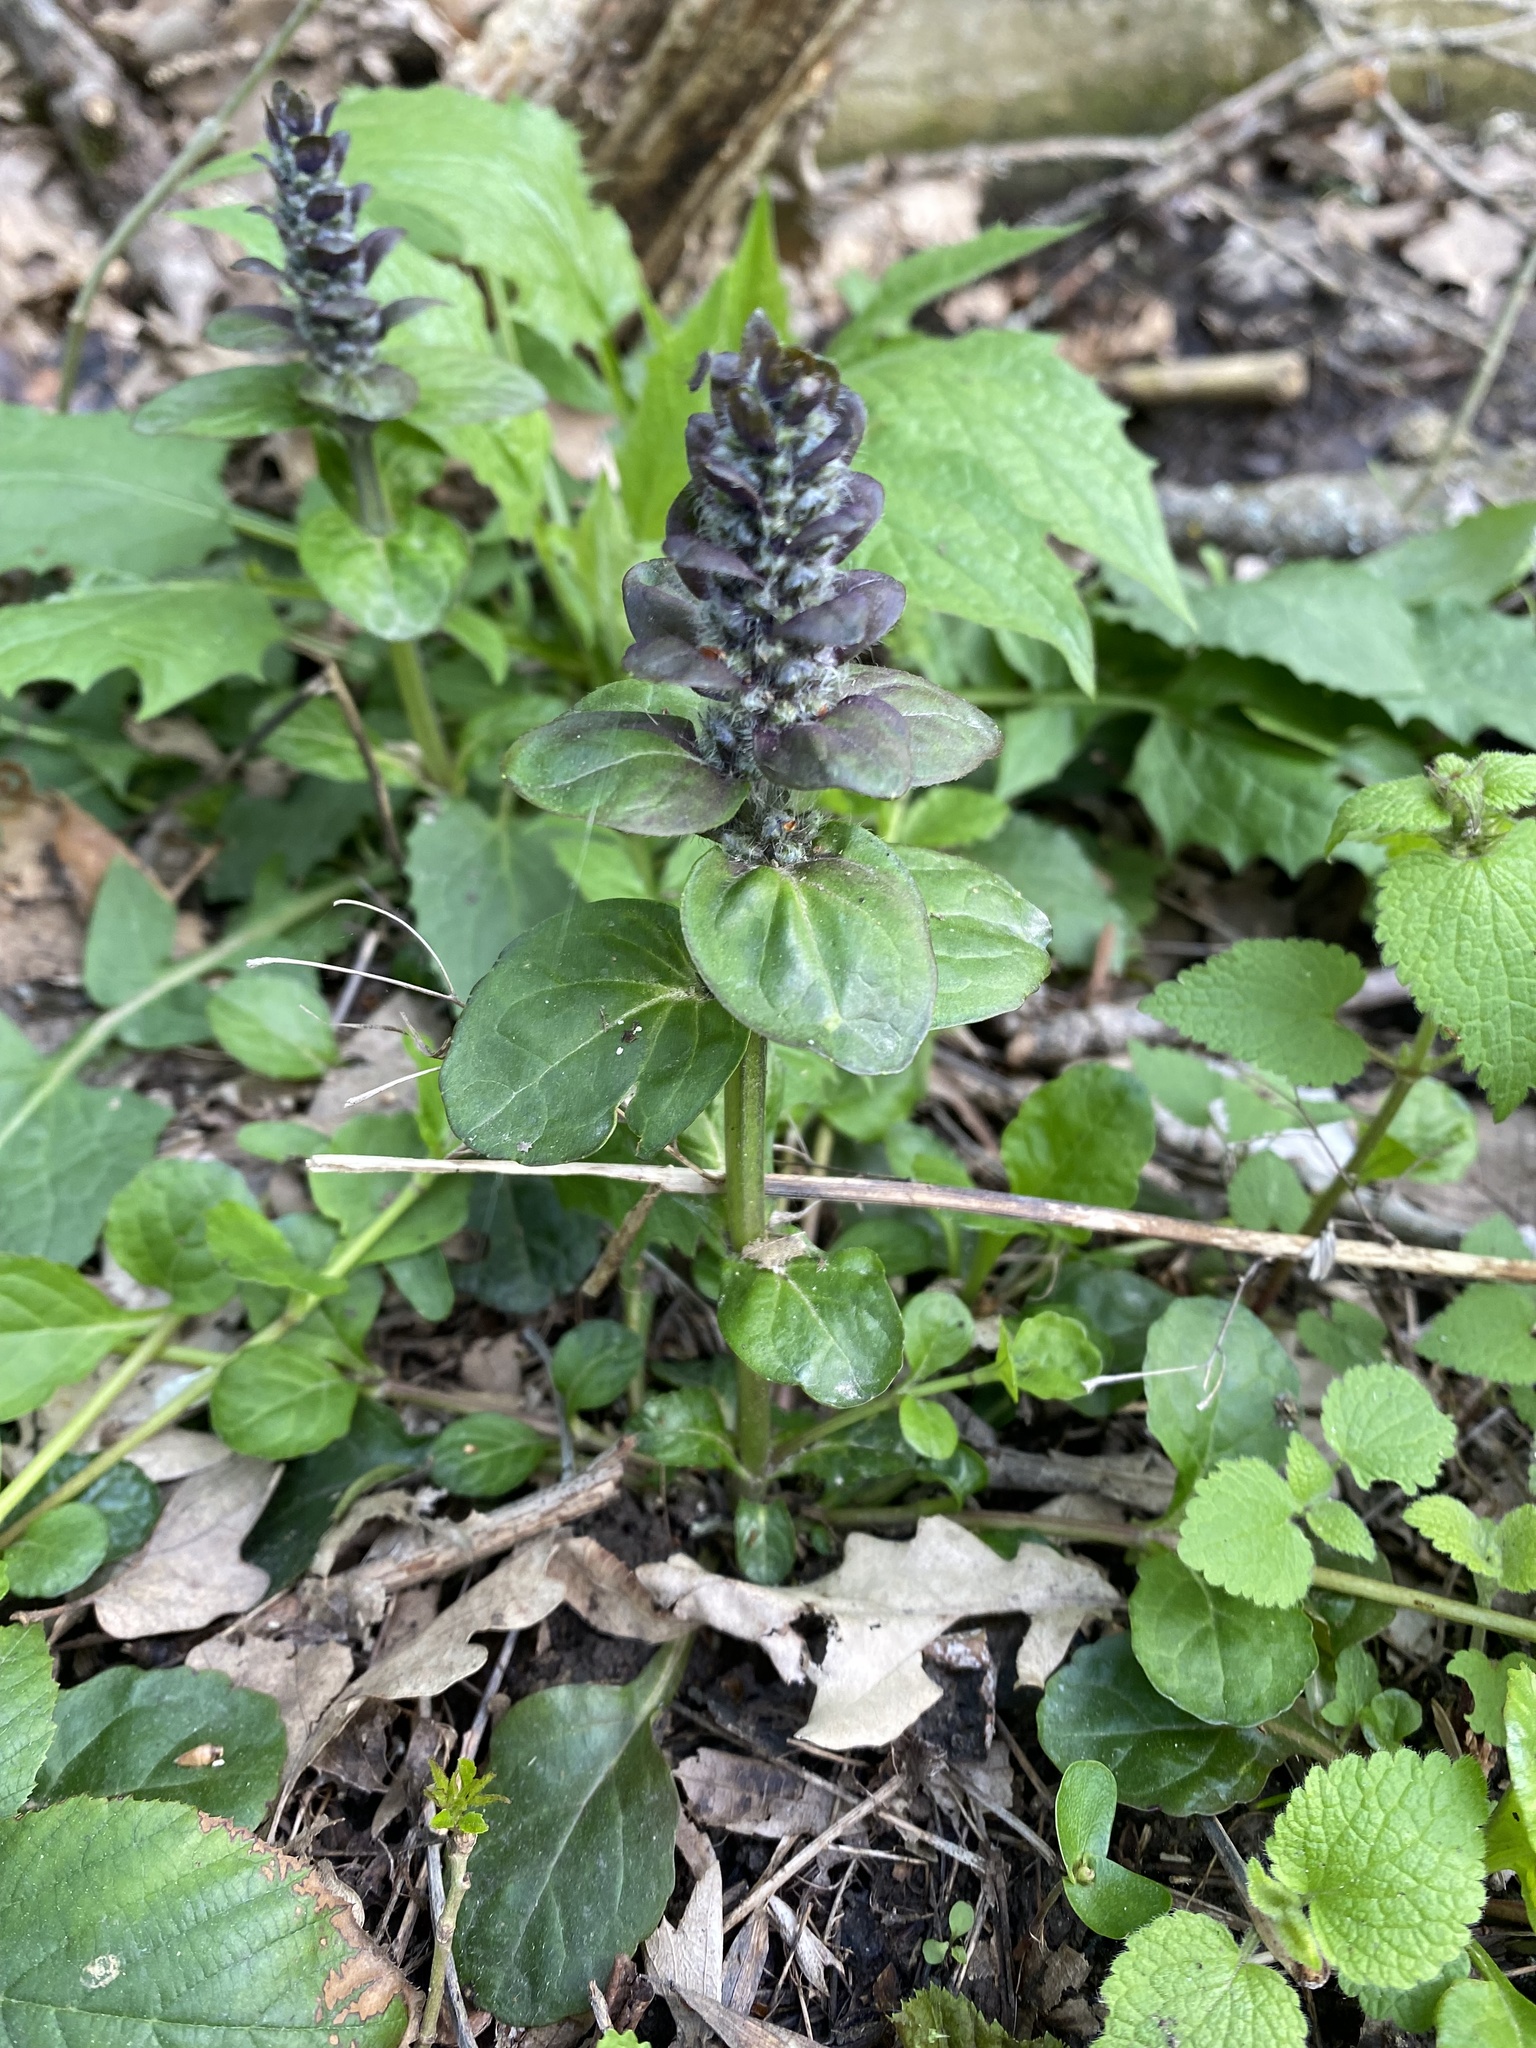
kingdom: Plantae
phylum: Tracheophyta
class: Magnoliopsida
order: Lamiales
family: Lamiaceae
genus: Ajuga
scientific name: Ajuga reptans
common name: Bugle
